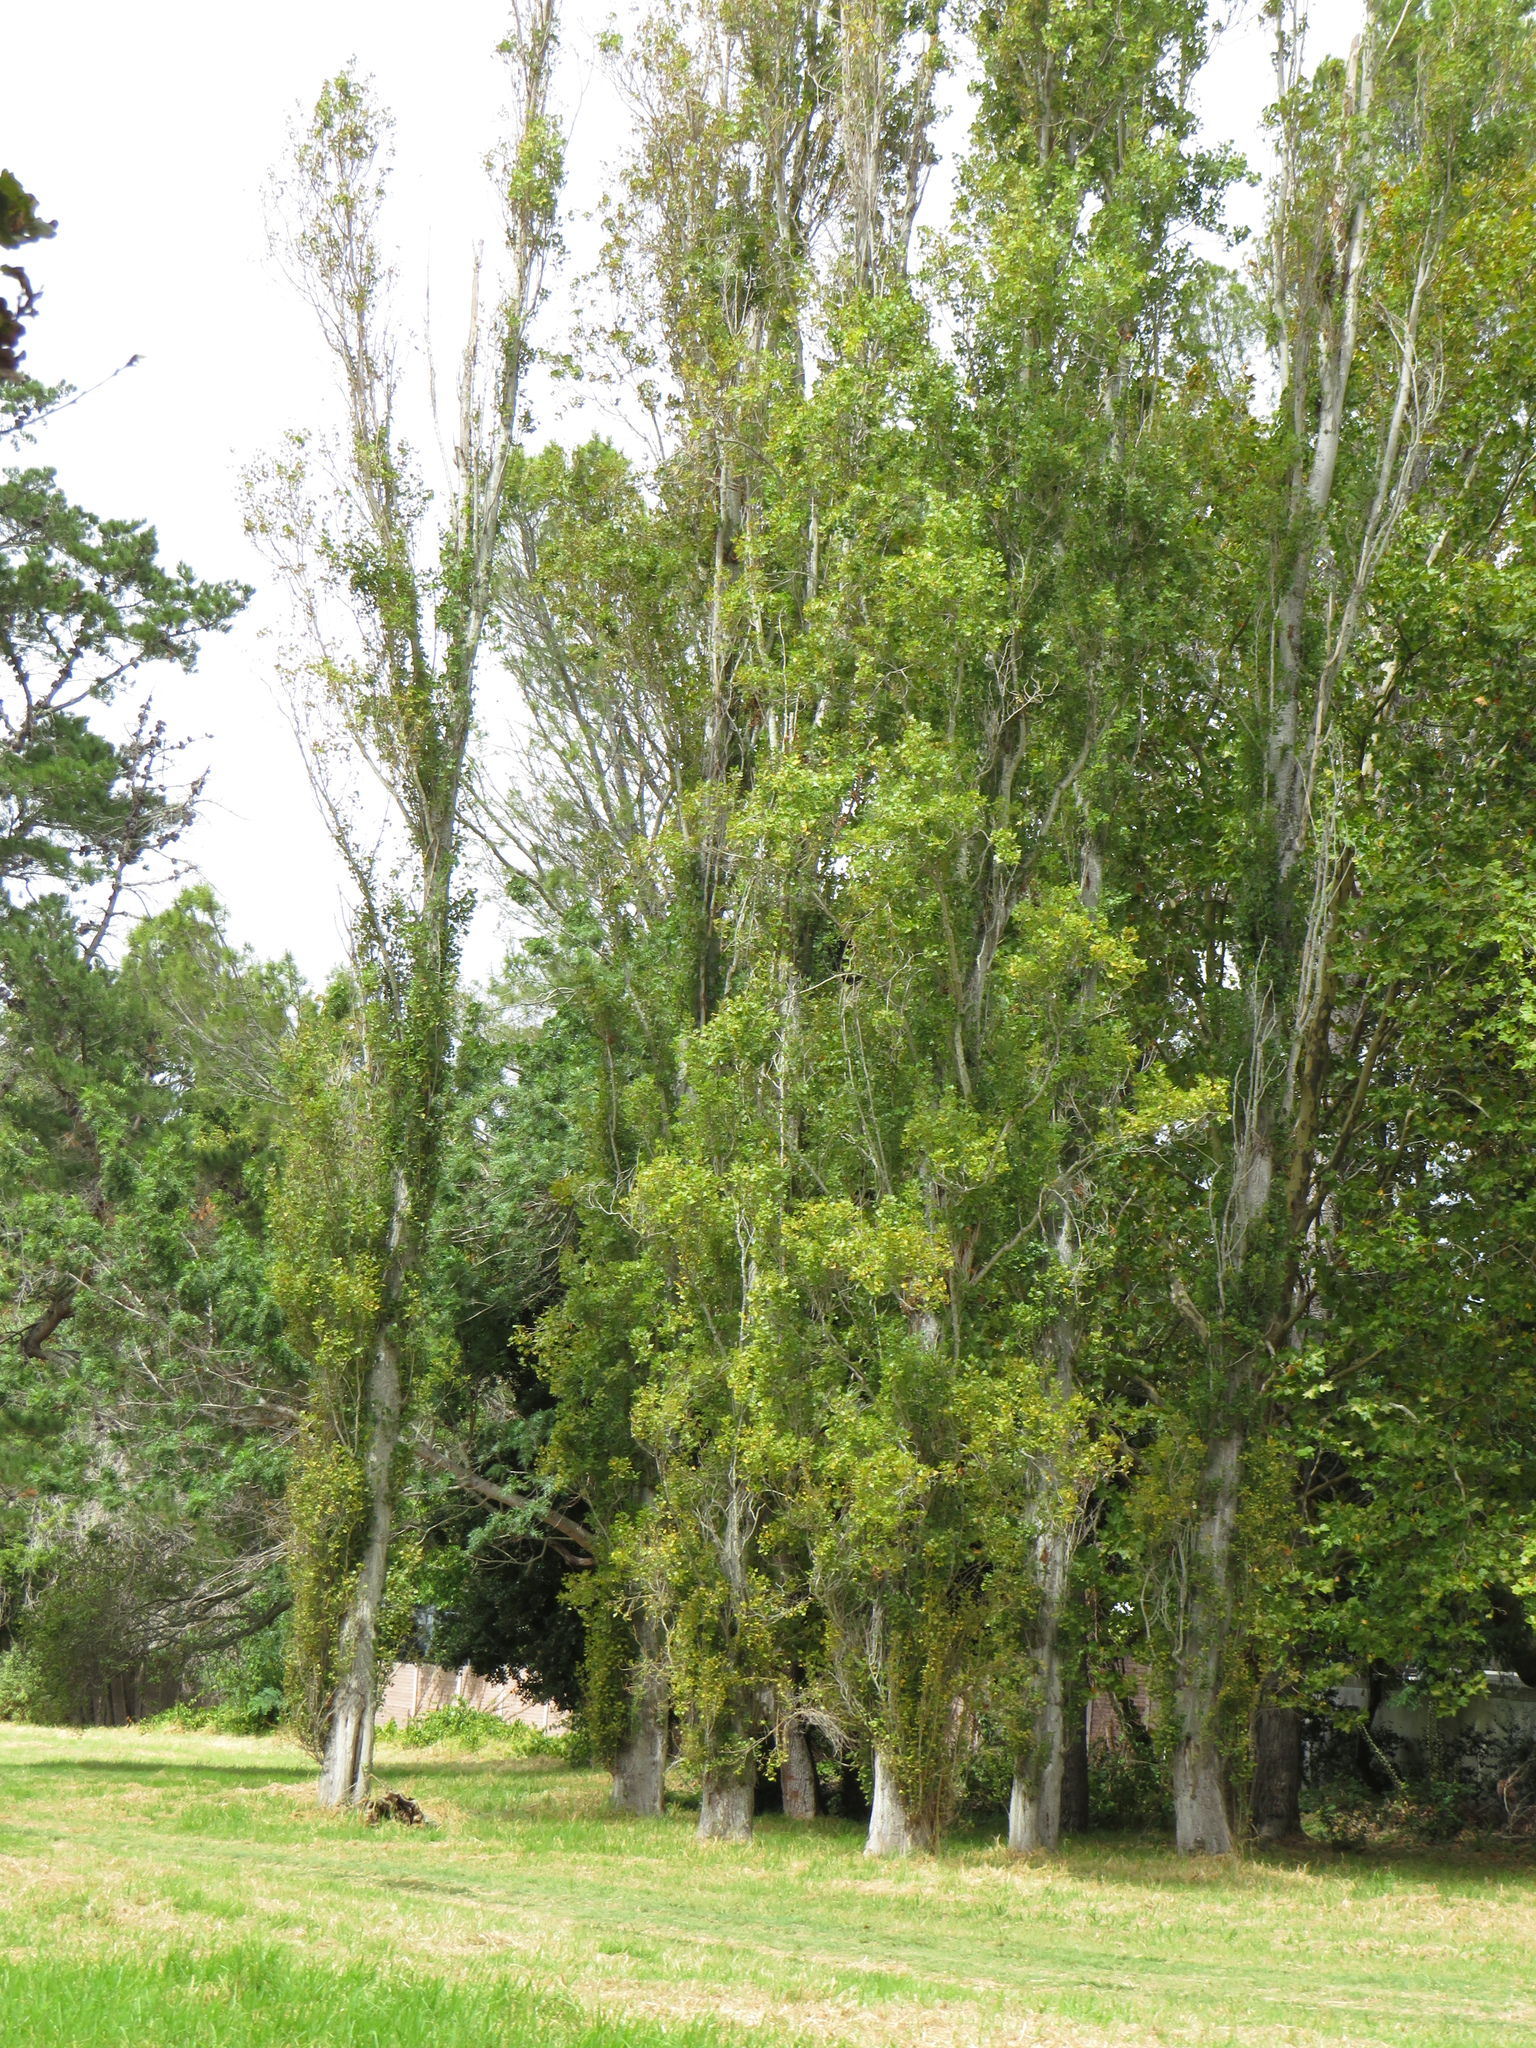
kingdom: Plantae
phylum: Tracheophyta
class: Magnoliopsida
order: Malpighiales
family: Salicaceae
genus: Populus
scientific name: Populus nigra
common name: Black poplar
